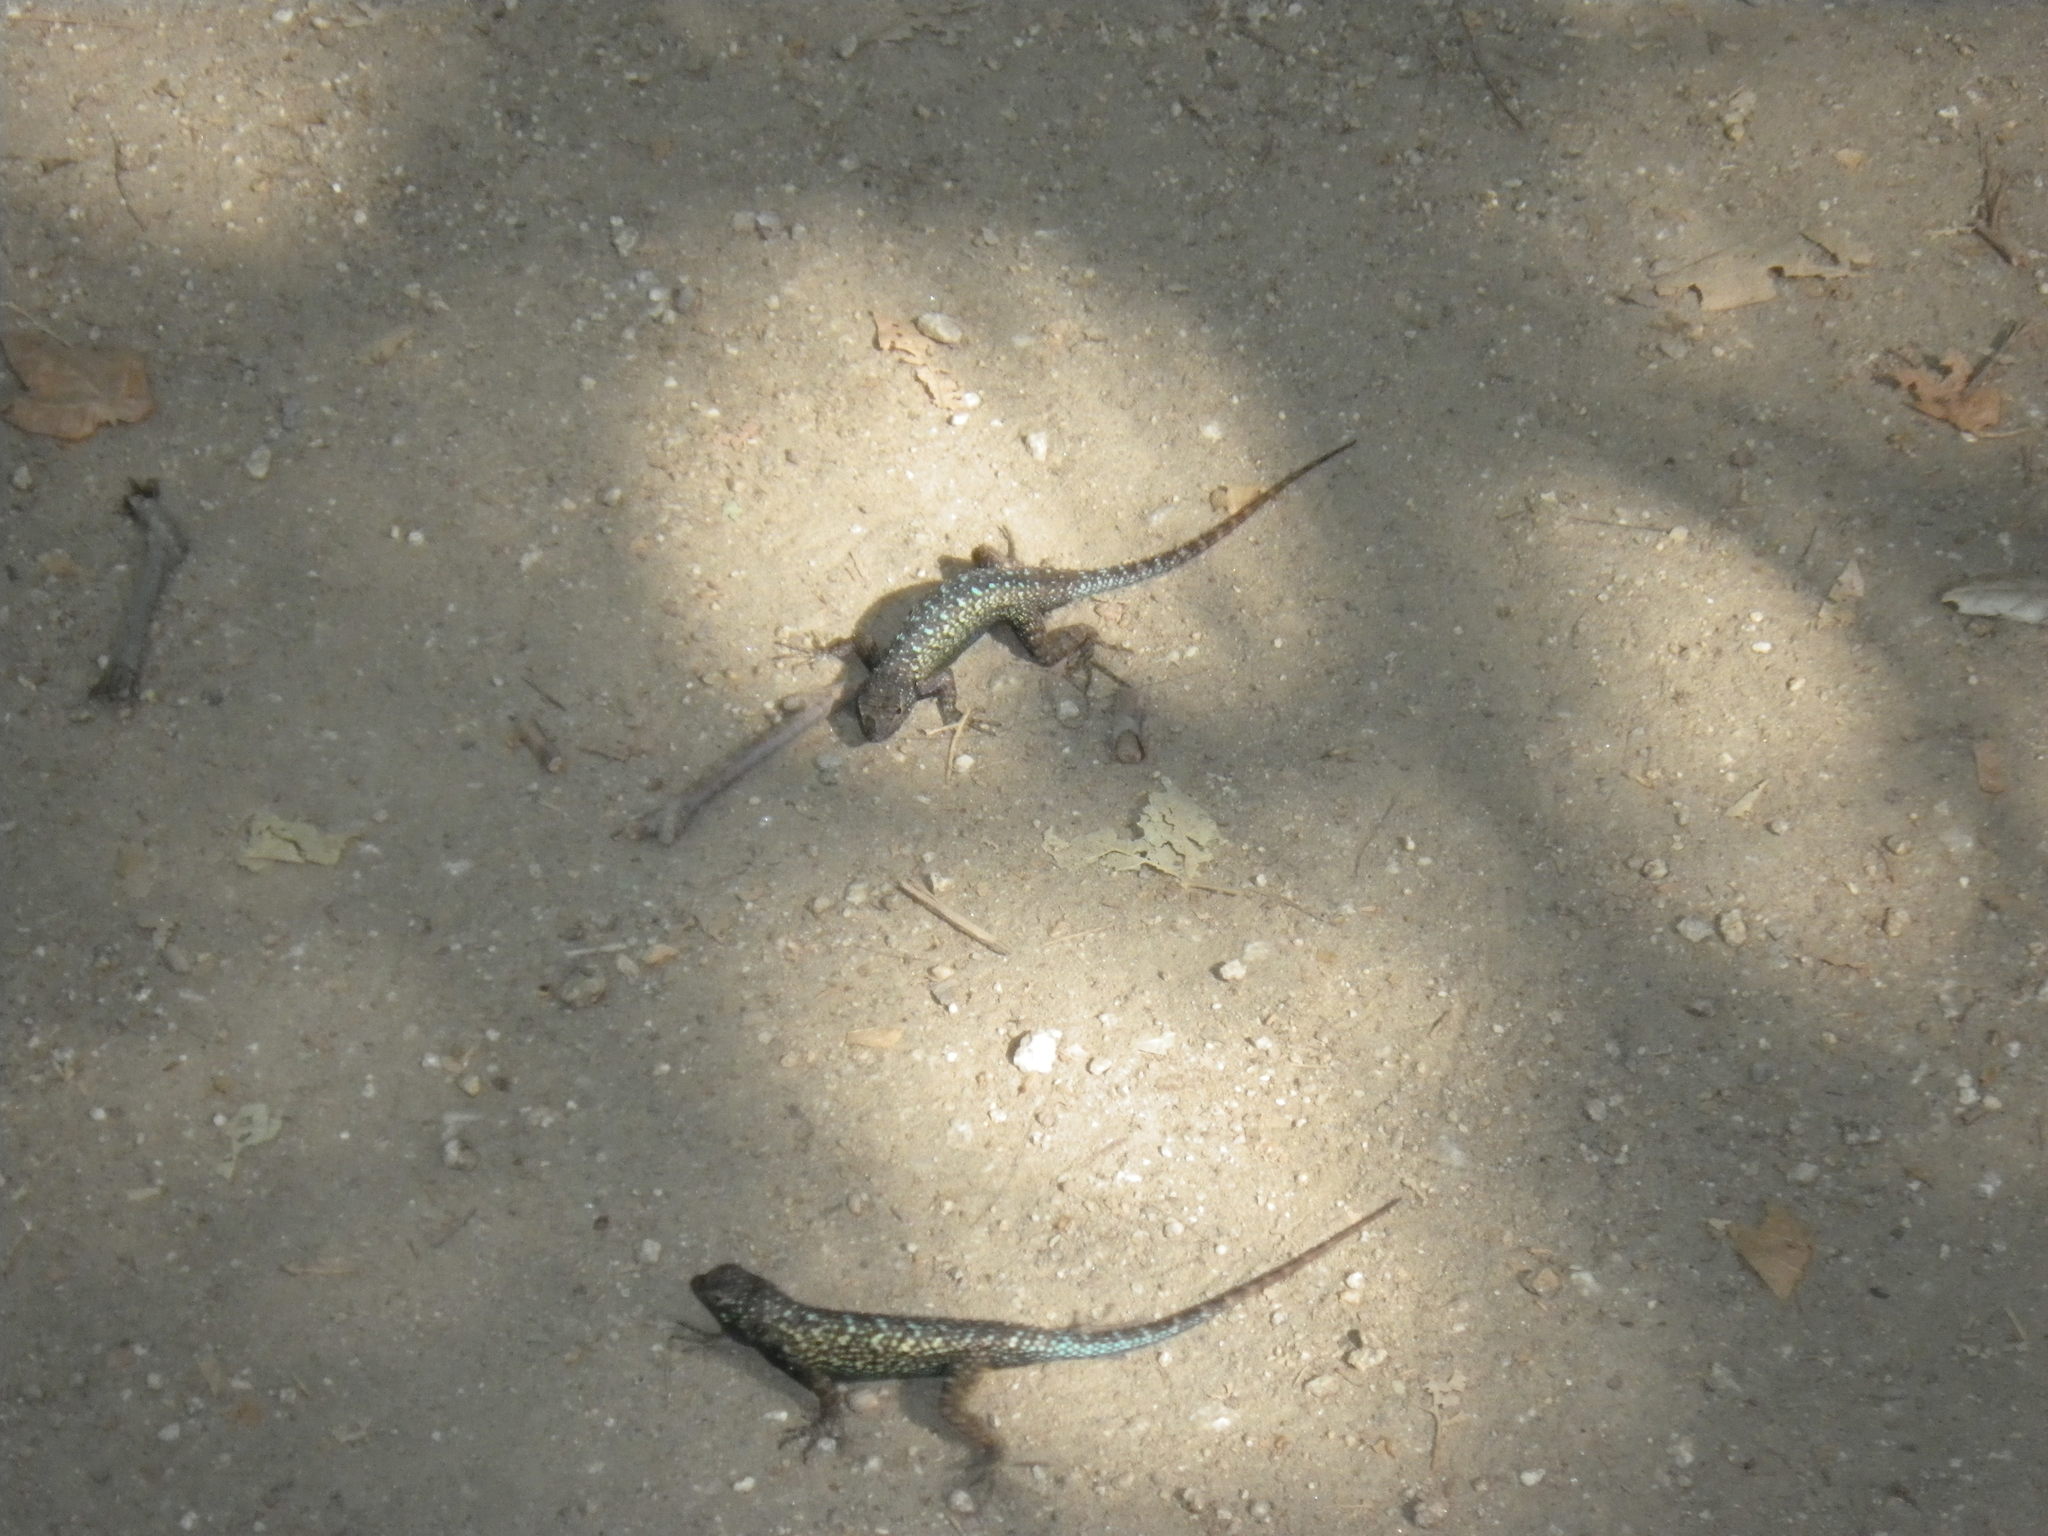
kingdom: Animalia
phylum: Chordata
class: Squamata
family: Phrynosomatidae
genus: Sceloporus
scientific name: Sceloporus occidentalis
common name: Western fence lizard
